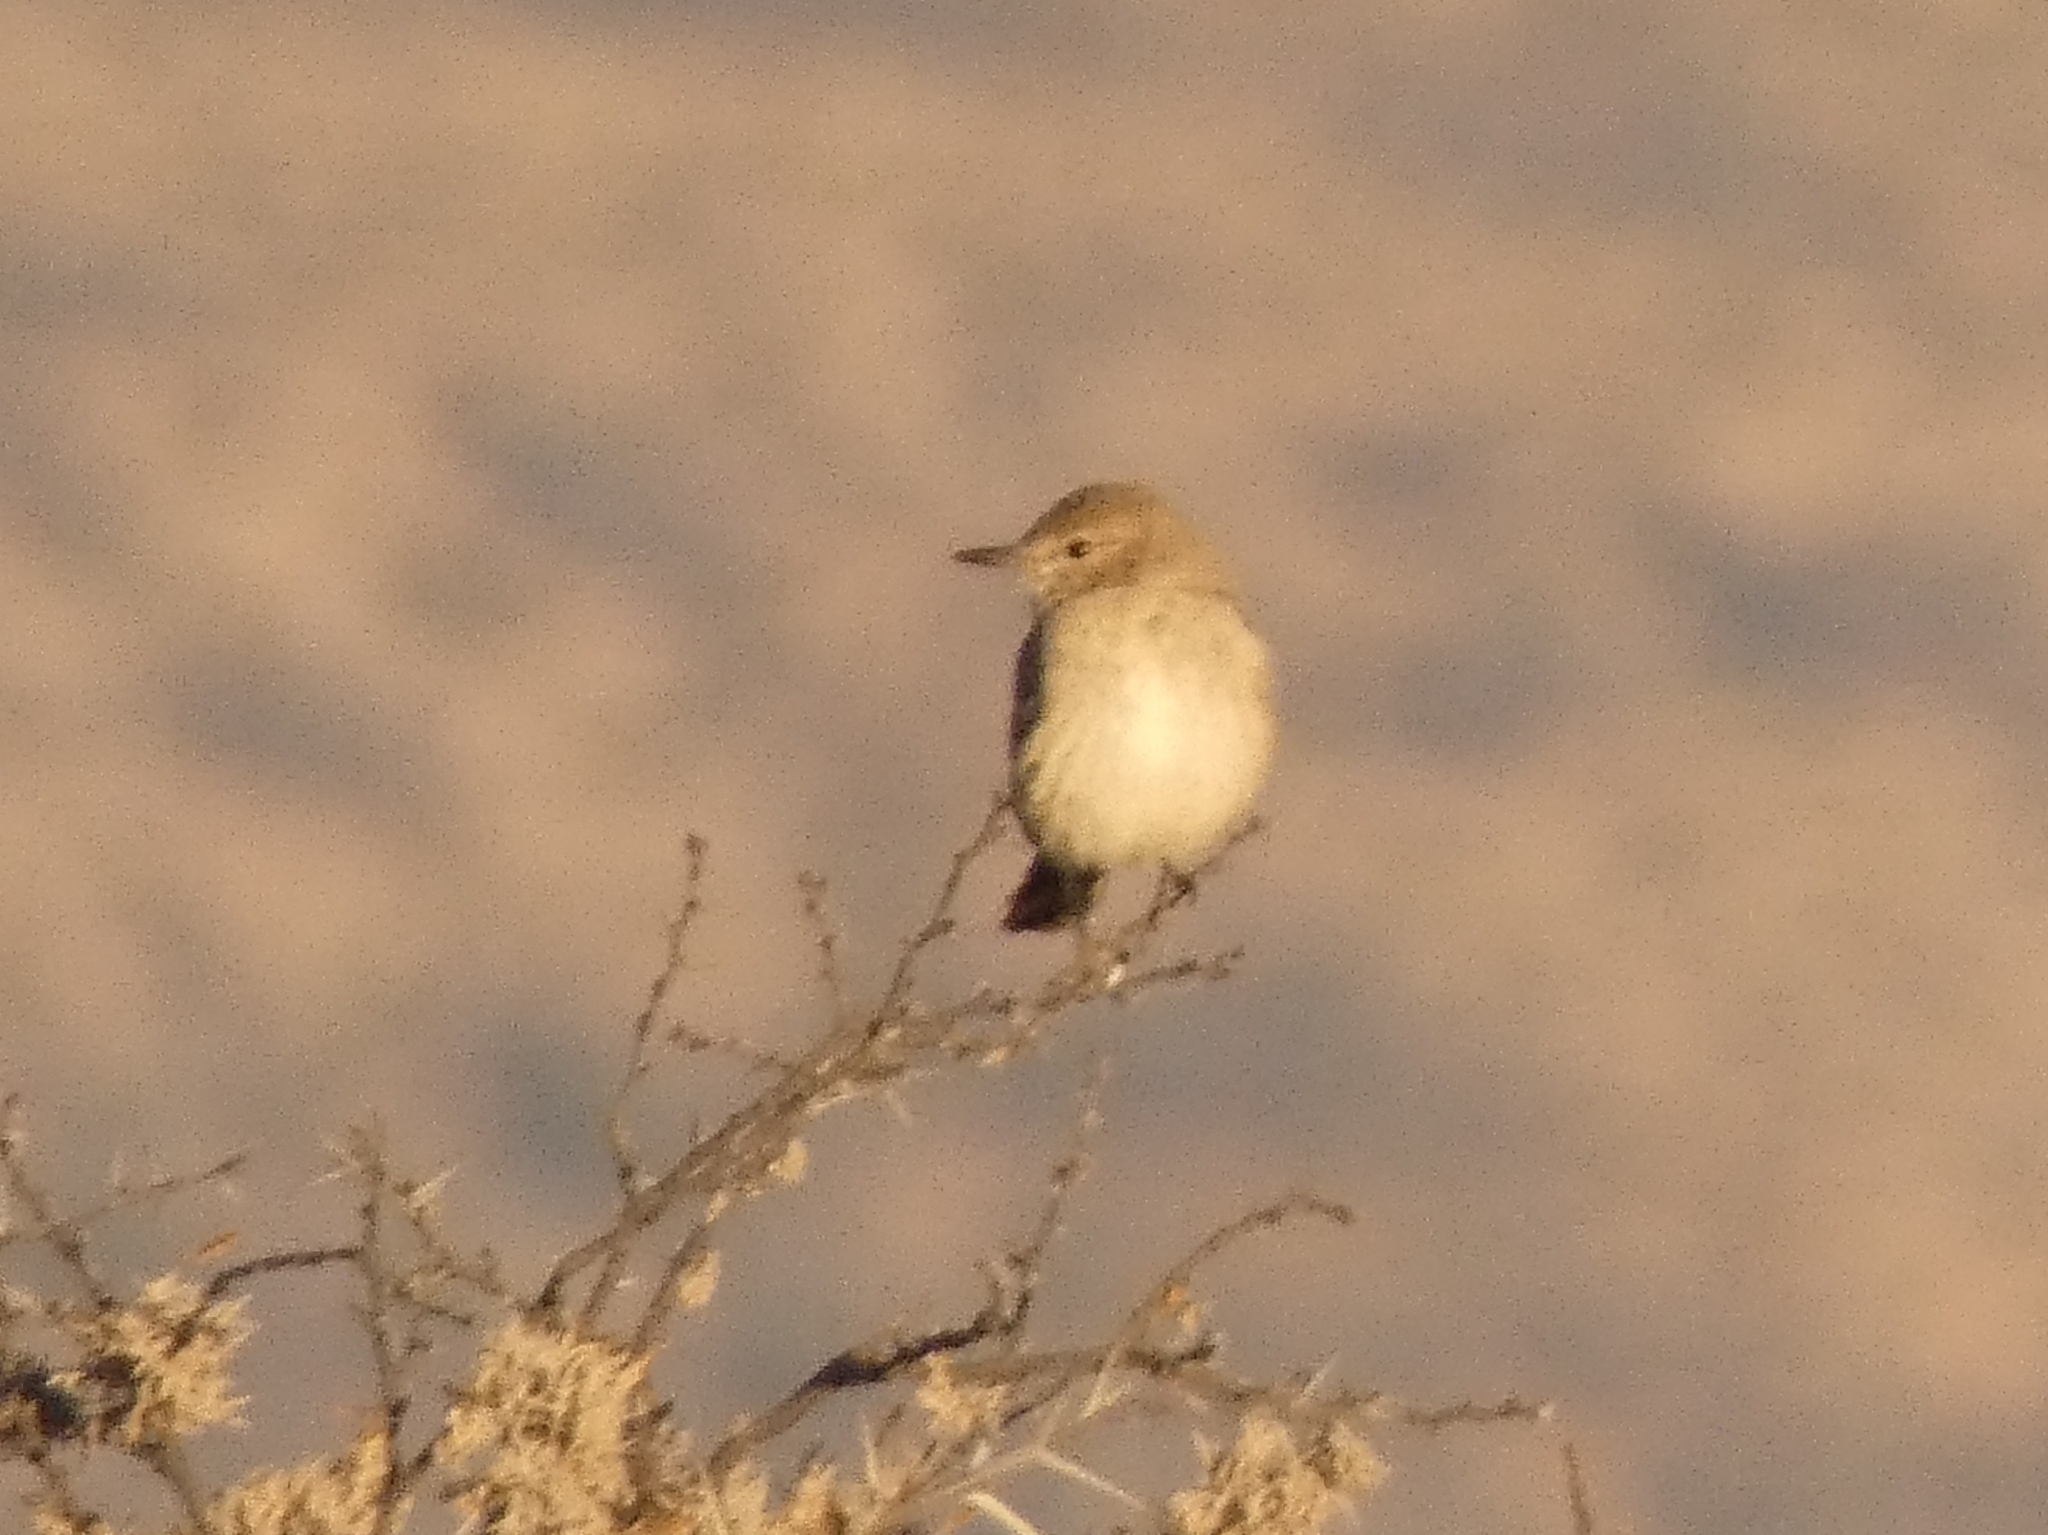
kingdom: Animalia
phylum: Chordata
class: Aves
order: Passeriformes
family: Tyrannidae
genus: Agriornis
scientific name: Agriornis murinus
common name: Lesser shrike-tyrant
